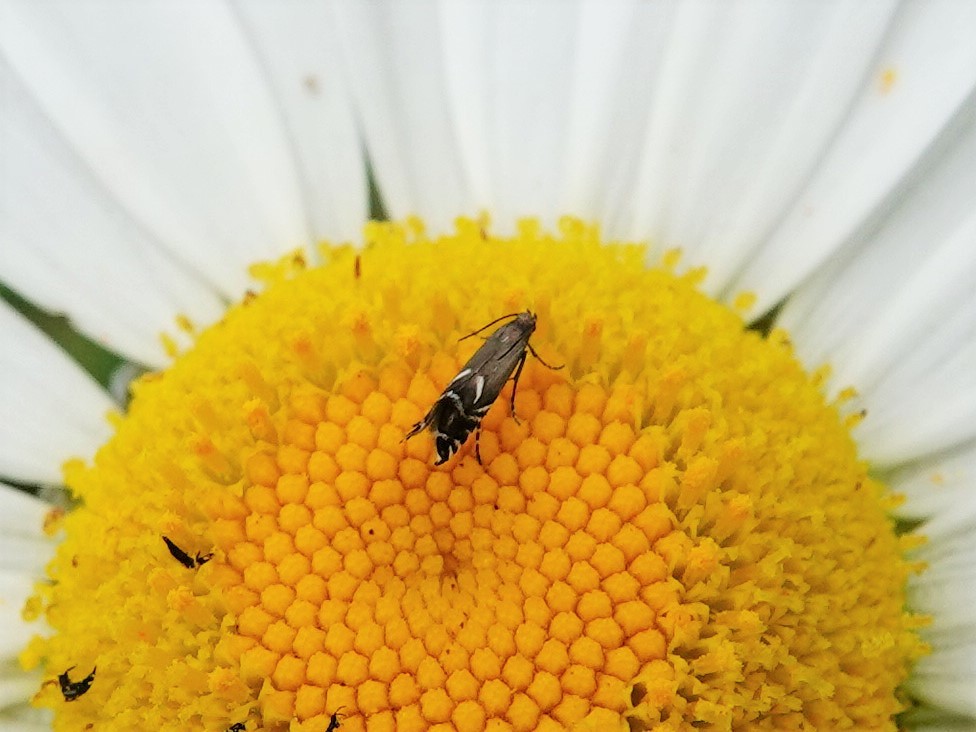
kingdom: Animalia
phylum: Arthropoda
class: Insecta
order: Lepidoptera
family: Glyphipterigidae
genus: Glyphipterix
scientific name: Glyphipterix simpliciella
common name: Cocksfoot moth
